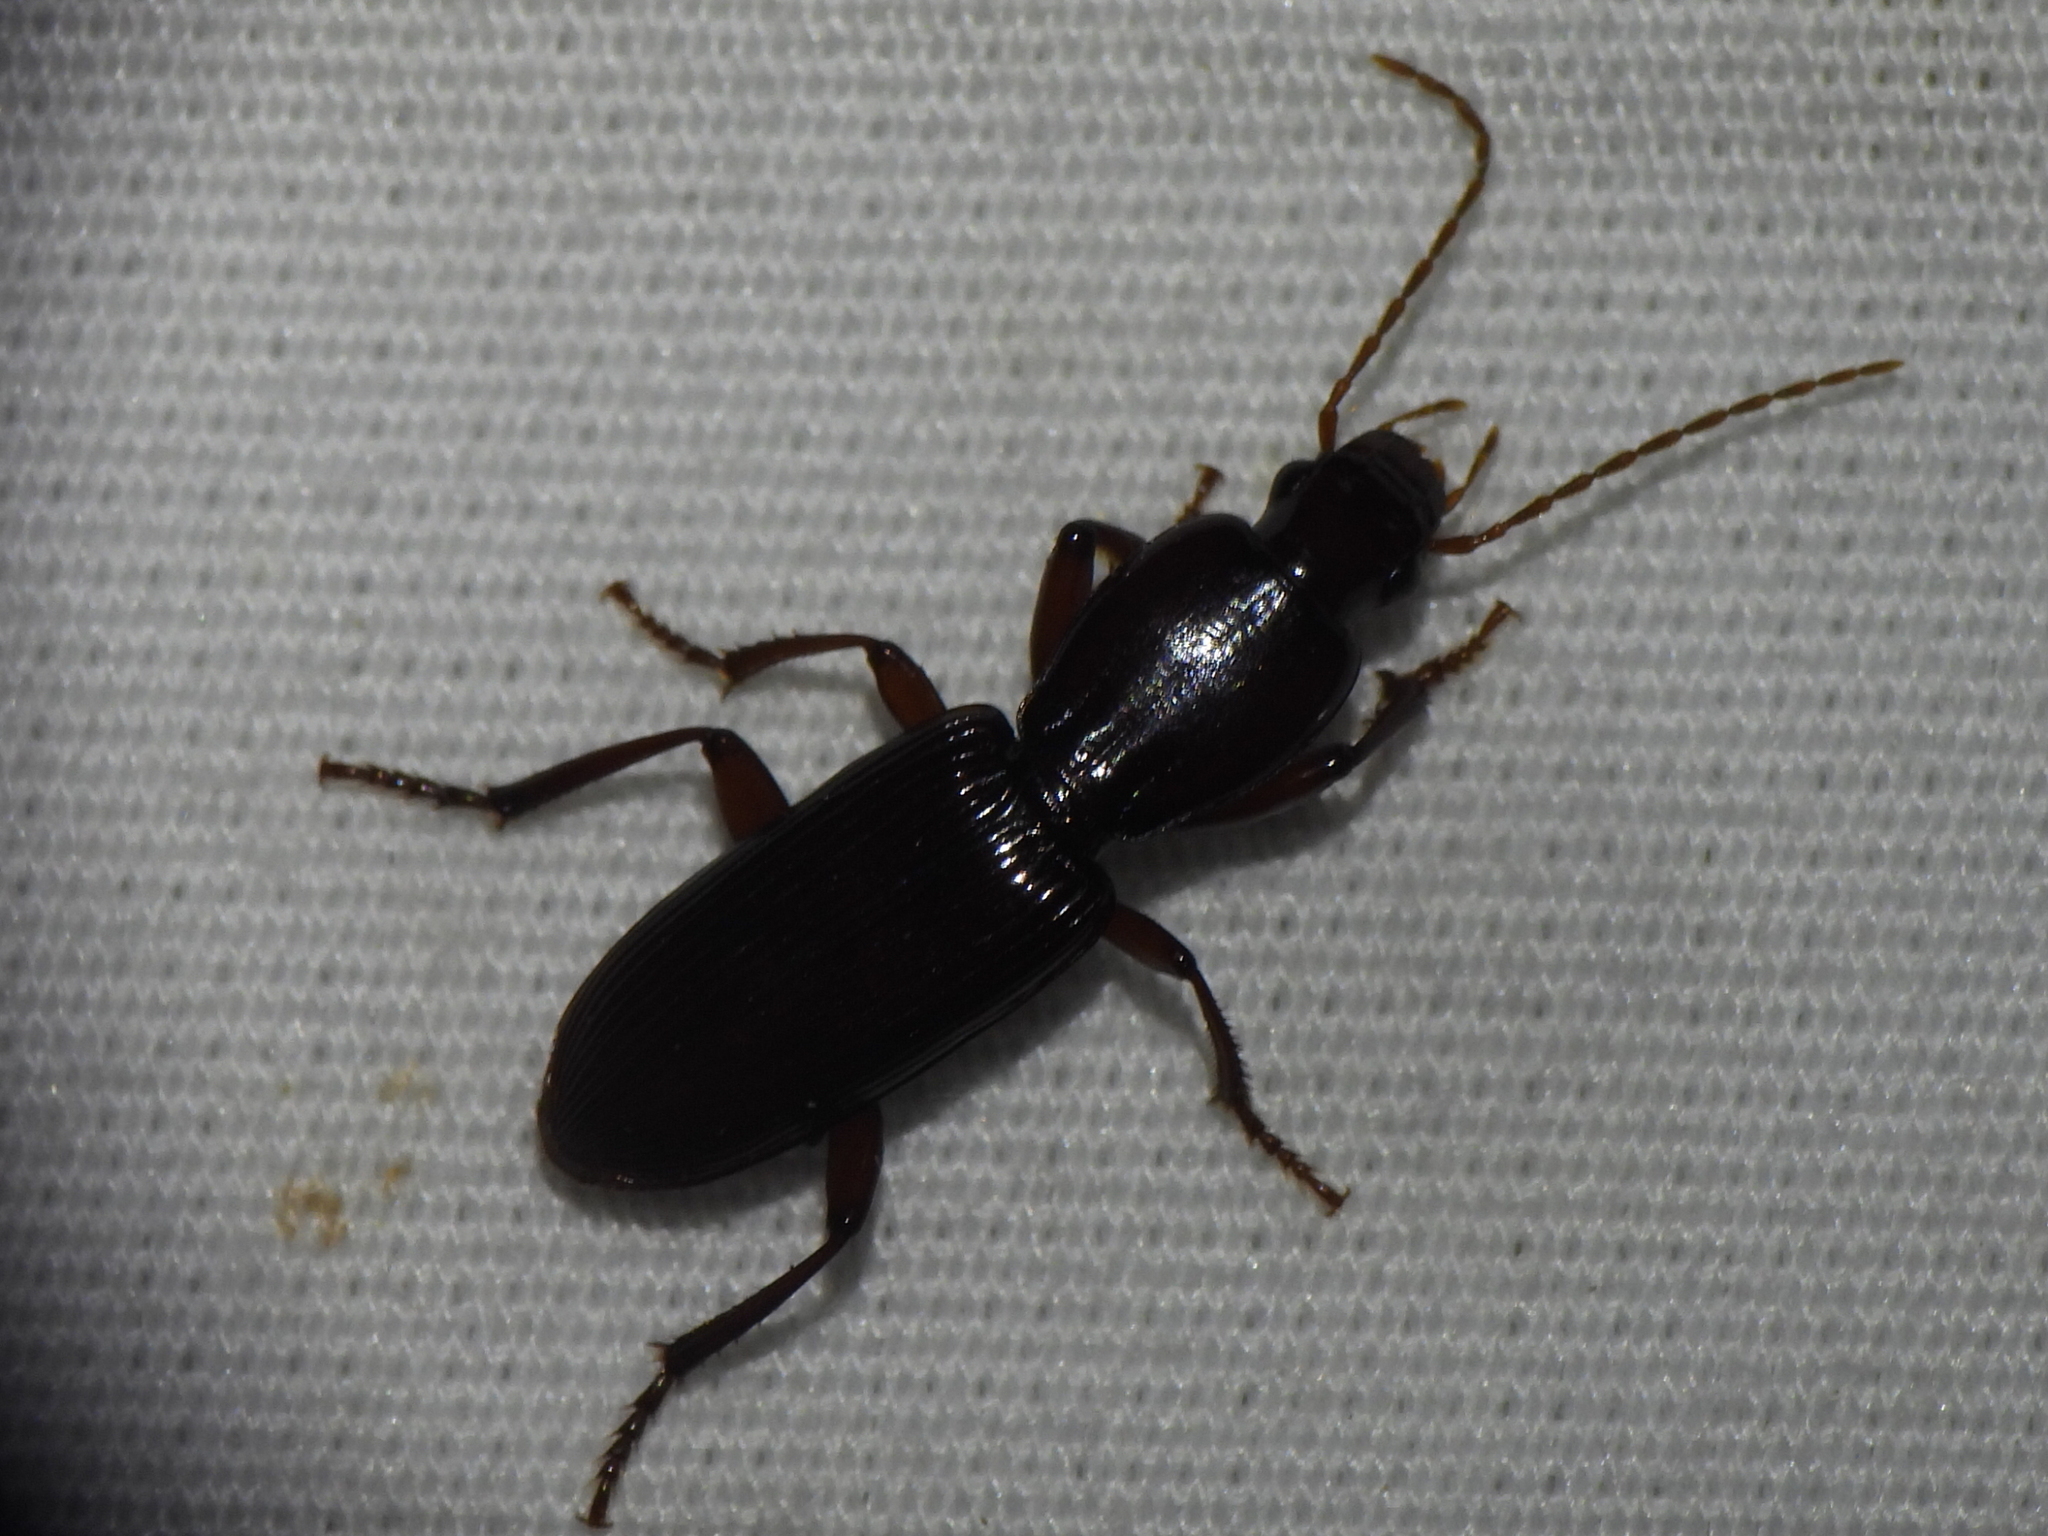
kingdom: Animalia
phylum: Arthropoda
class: Insecta
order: Coleoptera
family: Carabidae
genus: Stenomorphus
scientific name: Stenomorphus californicus
